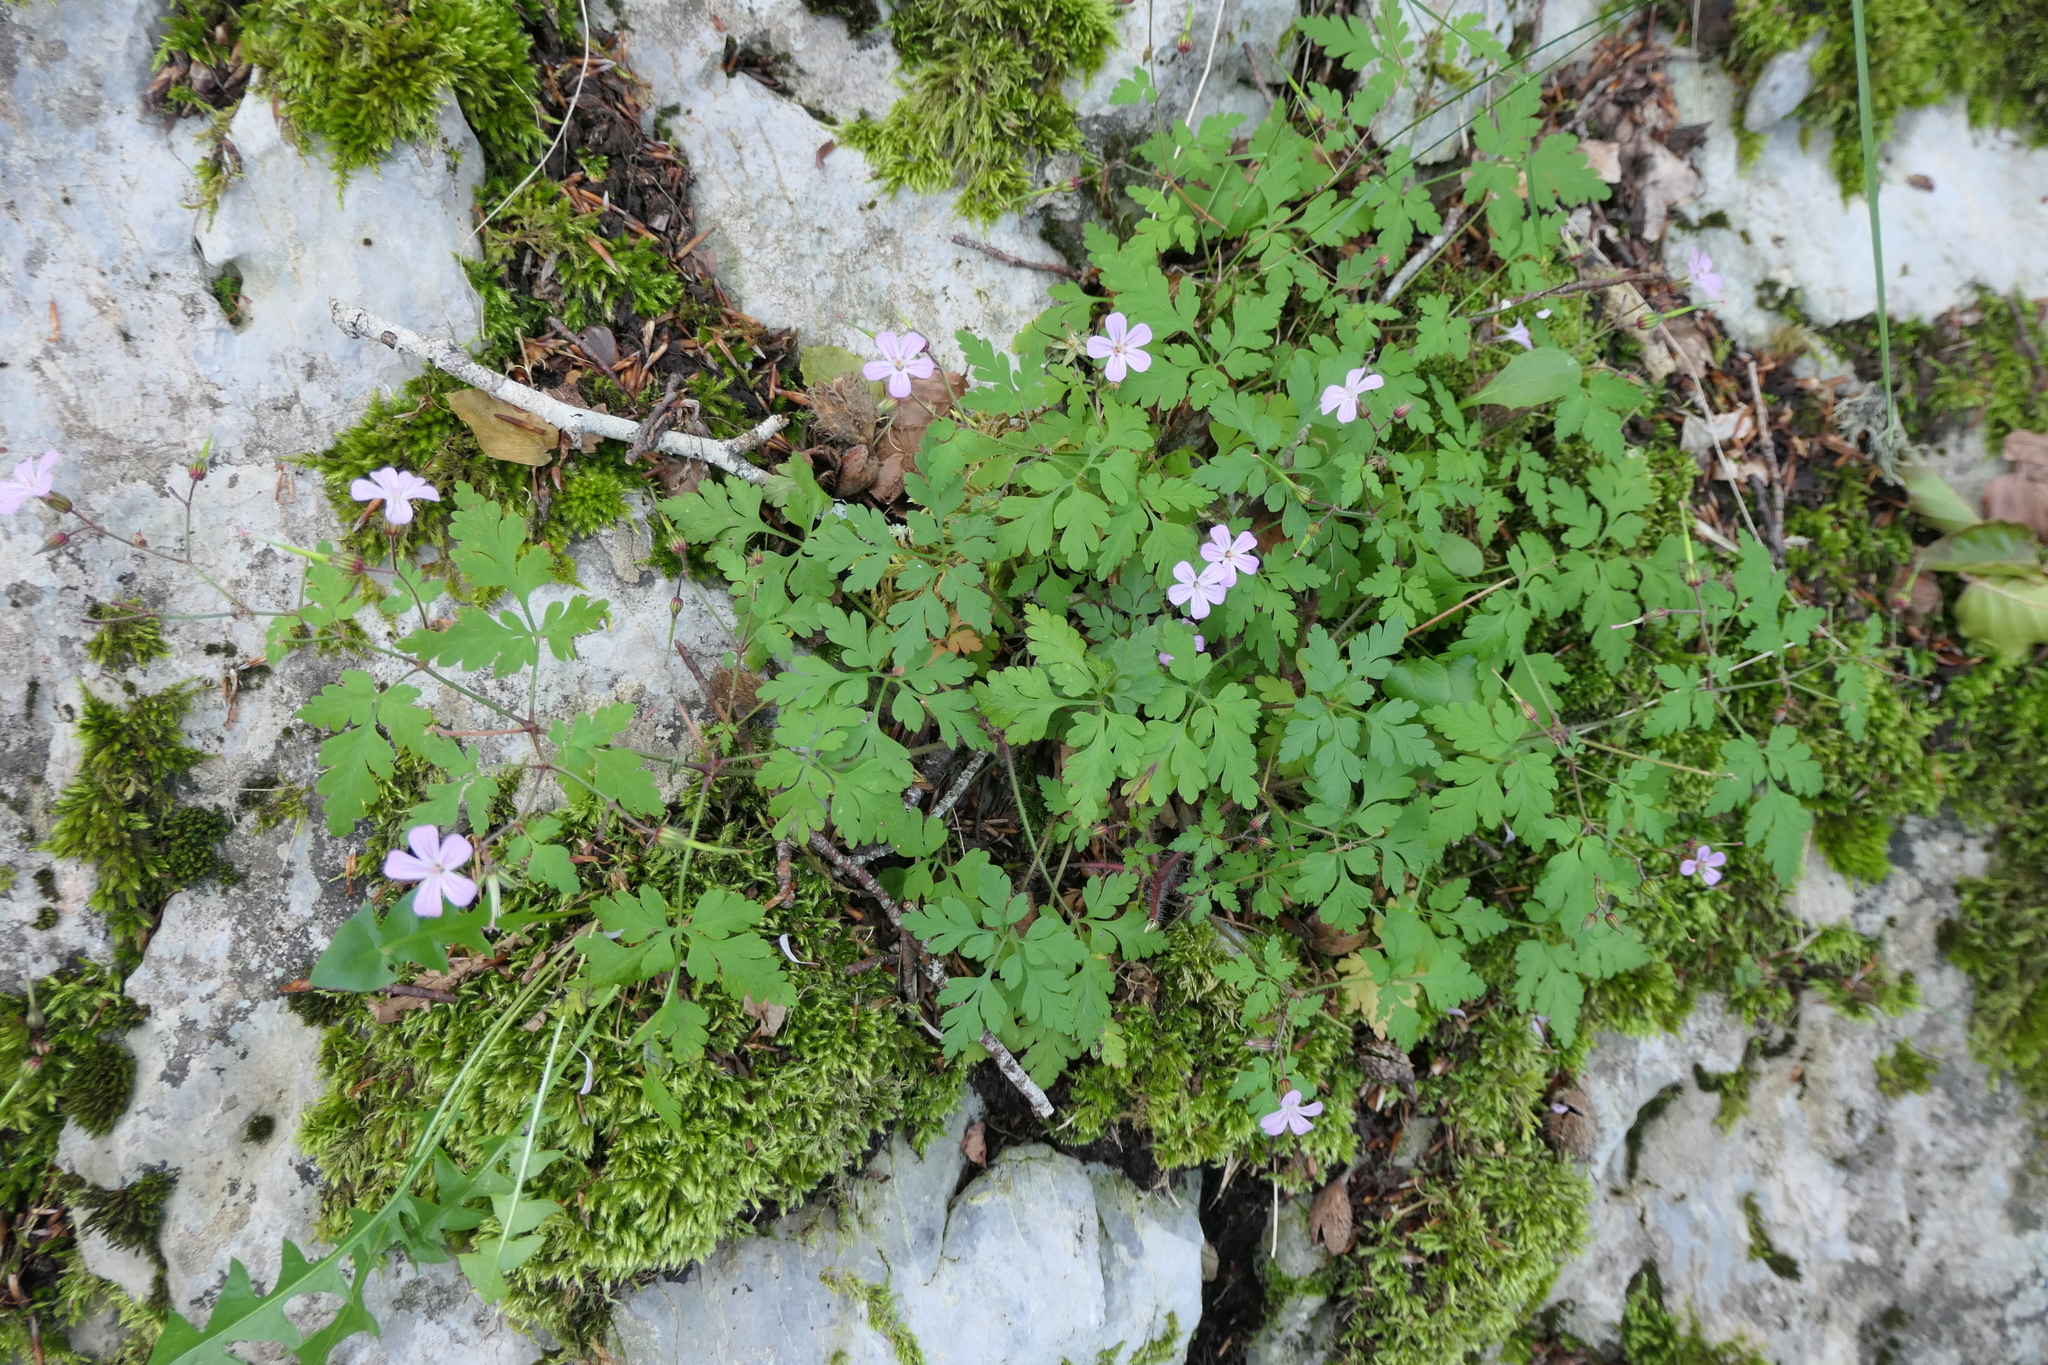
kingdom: Plantae
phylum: Tracheophyta
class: Magnoliopsida
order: Geraniales
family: Geraniaceae
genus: Geranium
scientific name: Geranium robertianum
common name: Herb-robert
